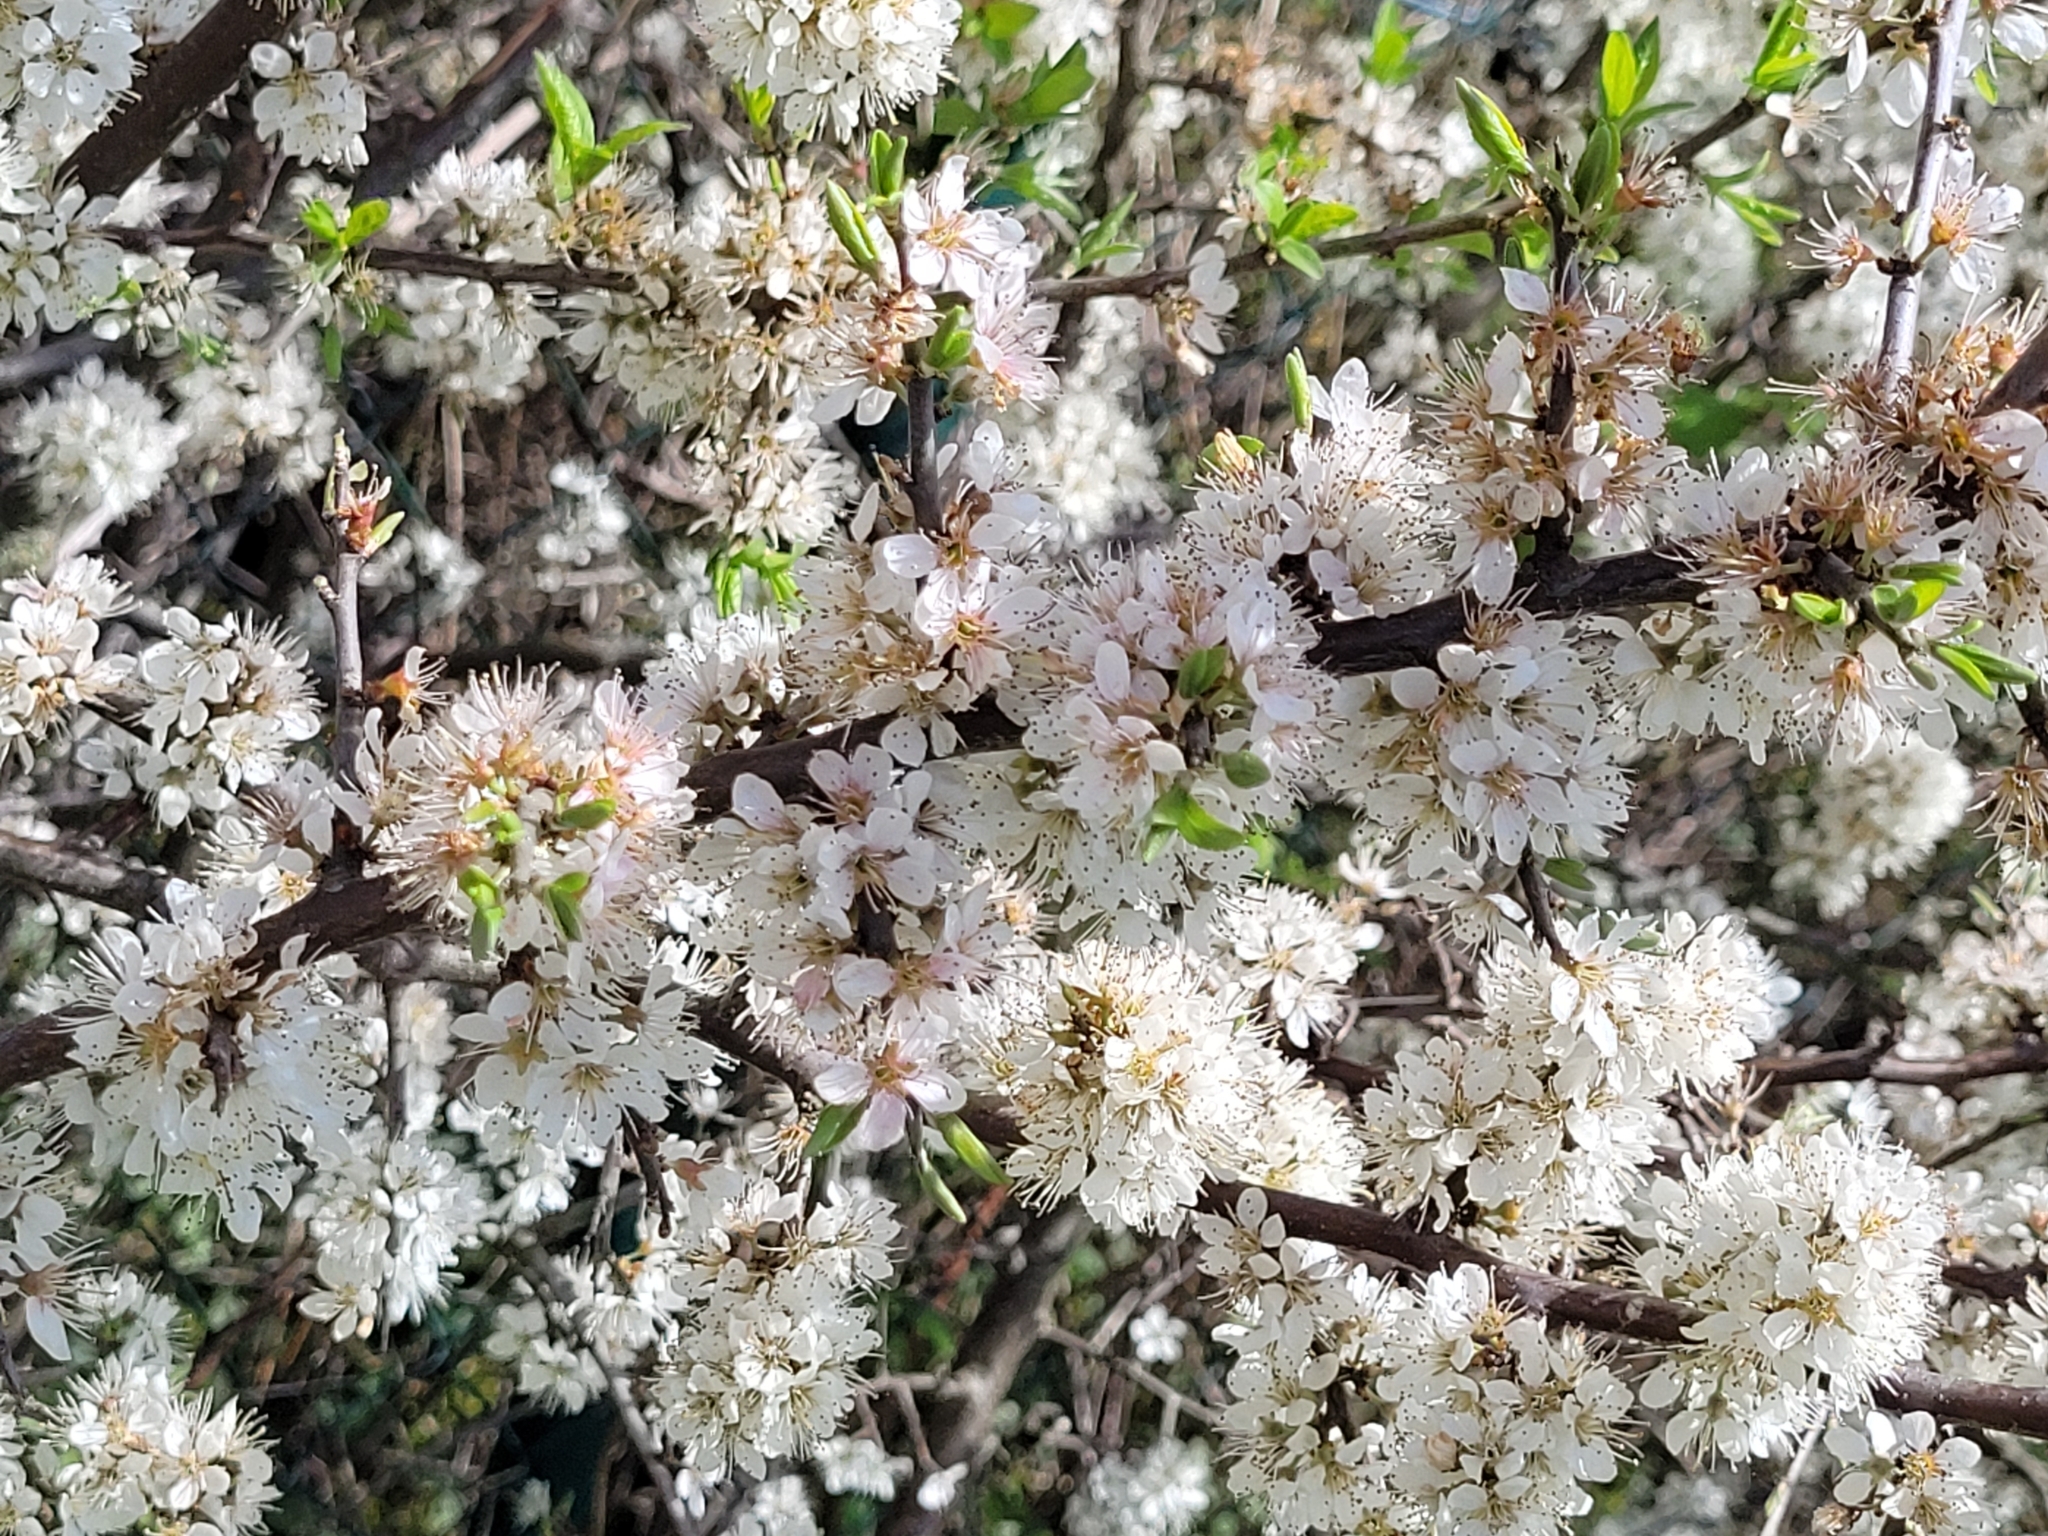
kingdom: Plantae
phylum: Tracheophyta
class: Magnoliopsida
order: Rosales
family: Rosaceae
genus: Prunus
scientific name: Prunus spinosa
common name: Blackthorn
